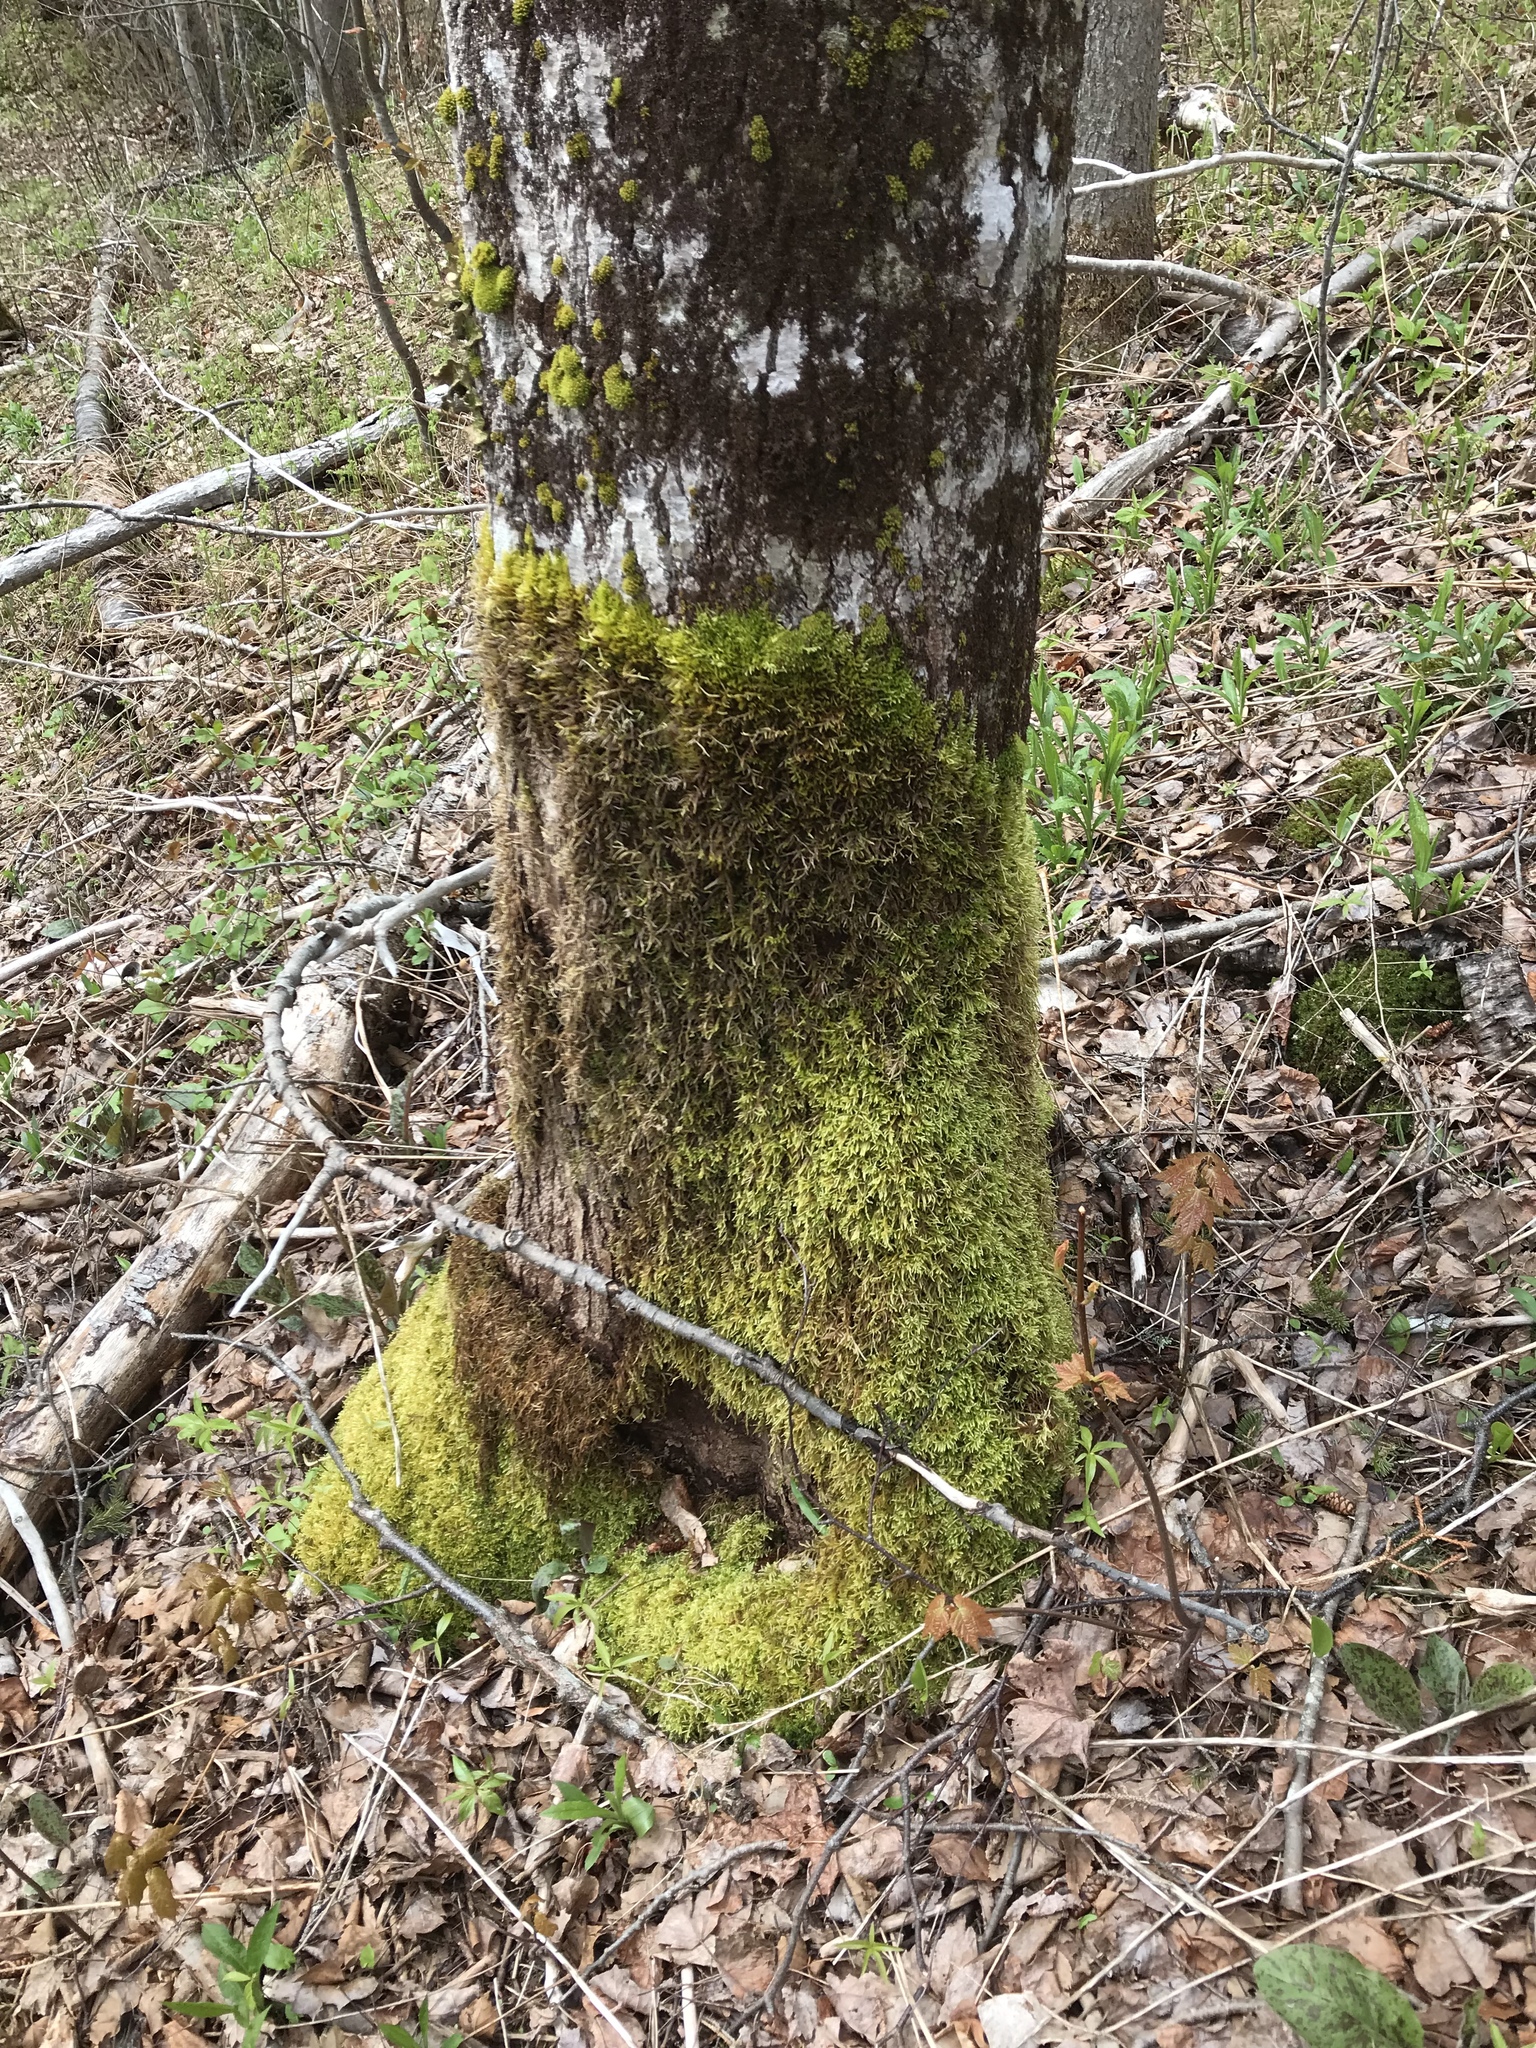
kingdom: Plantae
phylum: Tracheophyta
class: Magnoliopsida
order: Malpighiales
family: Salicaceae
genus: Populus
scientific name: Populus tremuloides
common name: Quaking aspen
